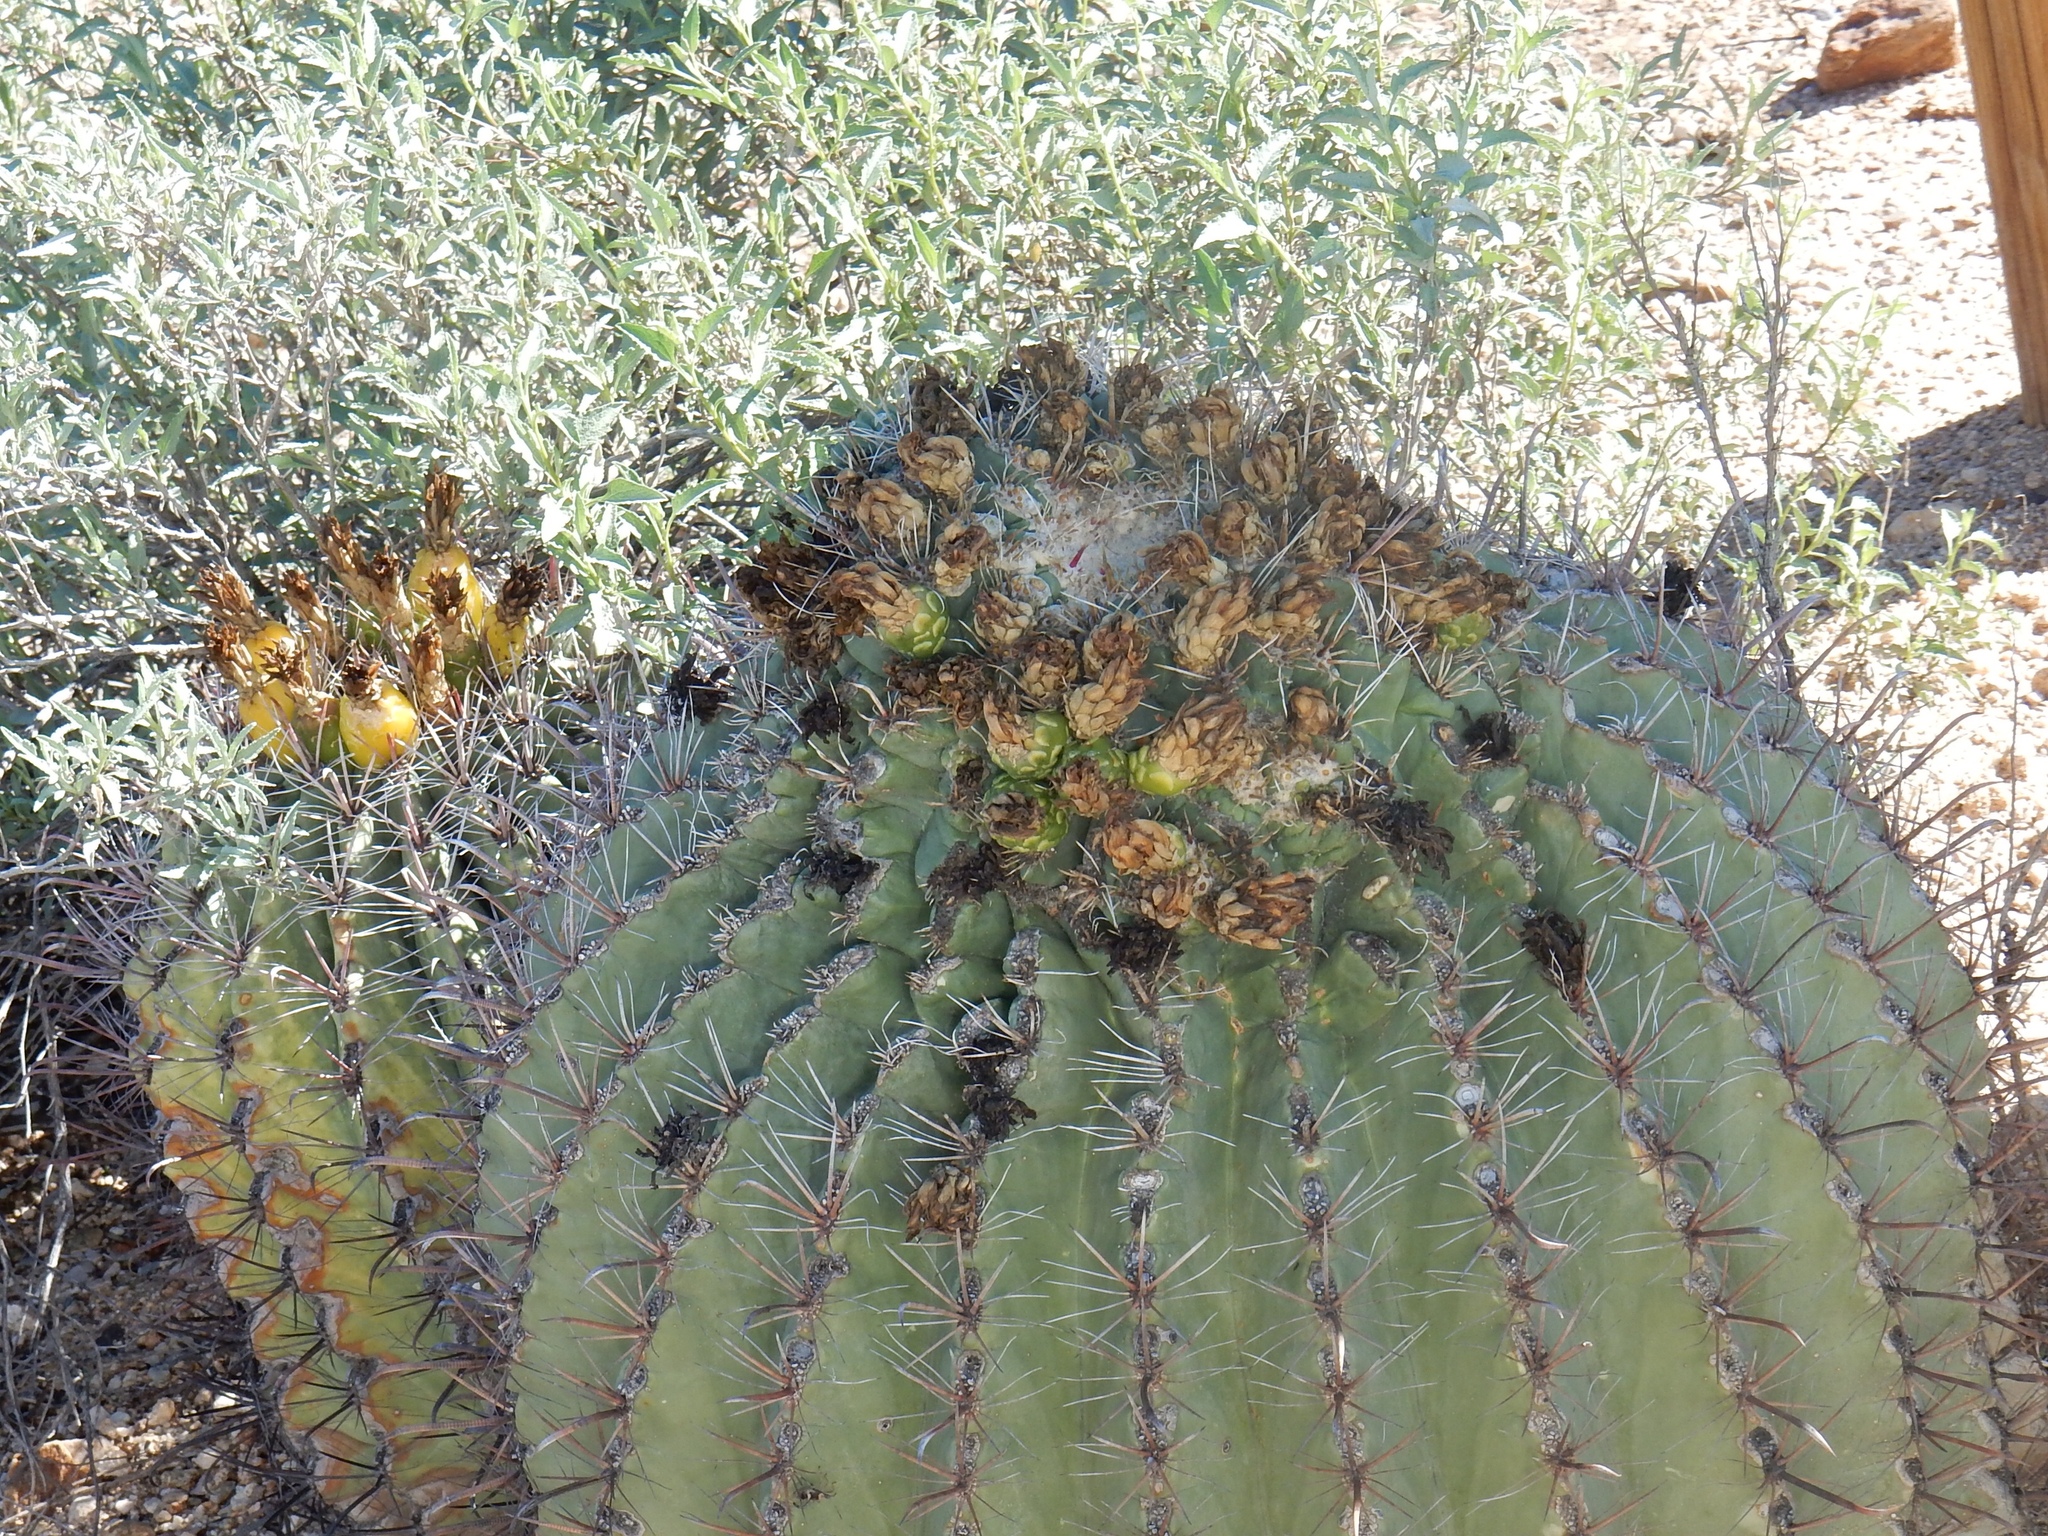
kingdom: Plantae
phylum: Tracheophyta
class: Magnoliopsida
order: Caryophyllales
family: Cactaceae
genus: Ferocactus
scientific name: Ferocactus wislizeni
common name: Candy barrel cactus
